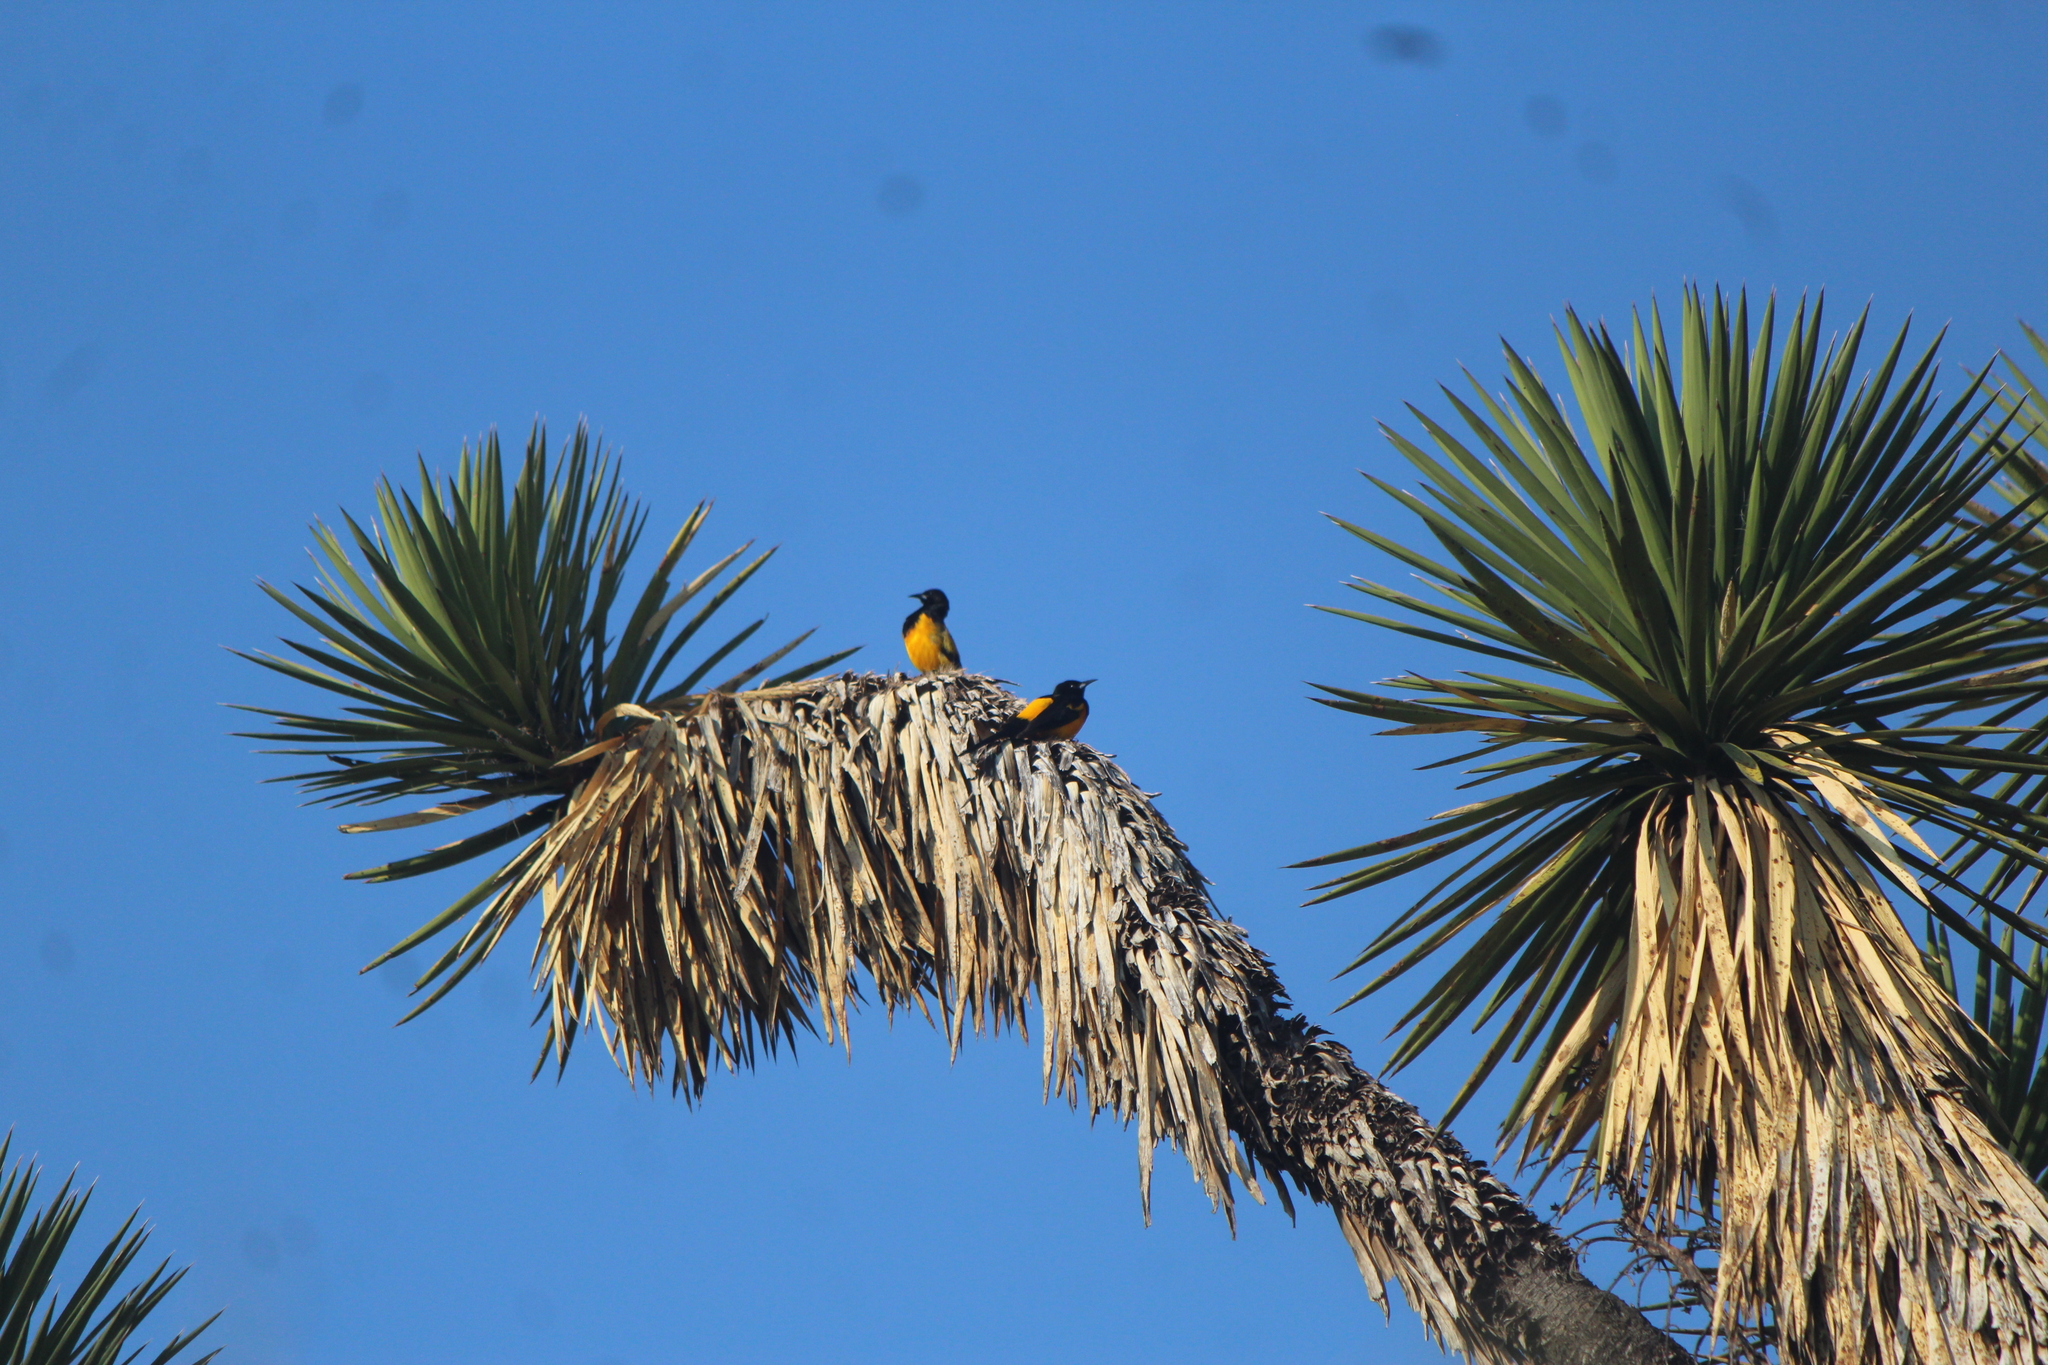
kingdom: Animalia
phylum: Chordata
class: Aves
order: Passeriformes
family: Icteridae
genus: Icterus
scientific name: Icterus wagleri
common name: Black-vented oriole
